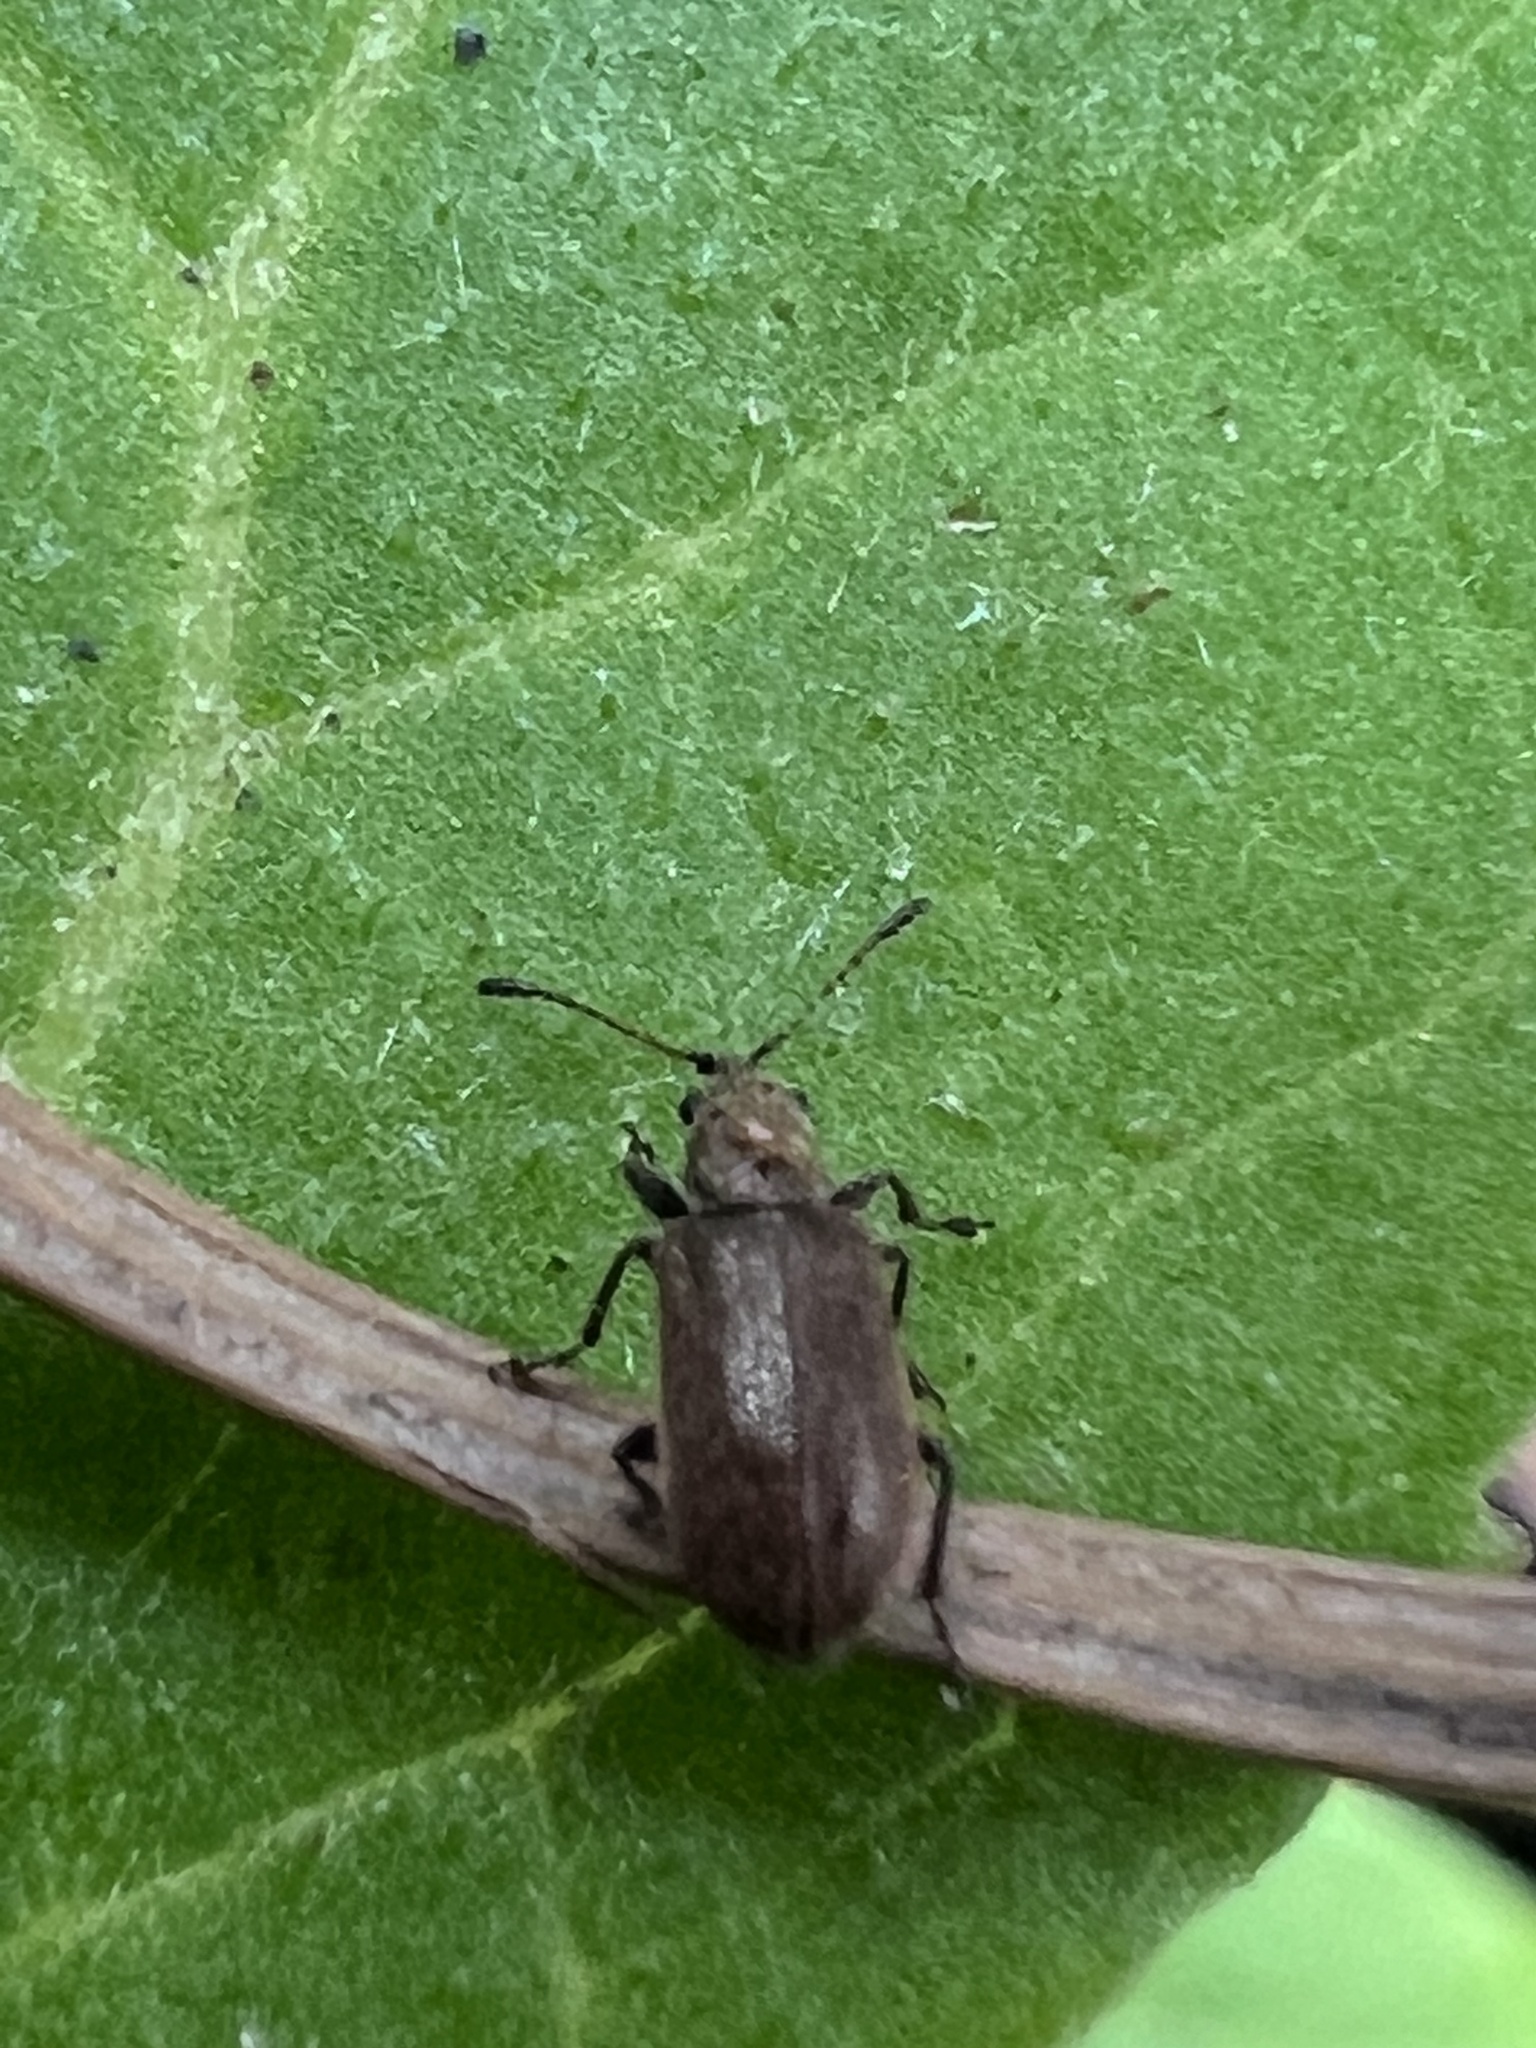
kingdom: Animalia
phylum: Arthropoda
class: Insecta
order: Coleoptera
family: Nemonychidae
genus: Cimberis
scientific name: Cimberis decipiens
